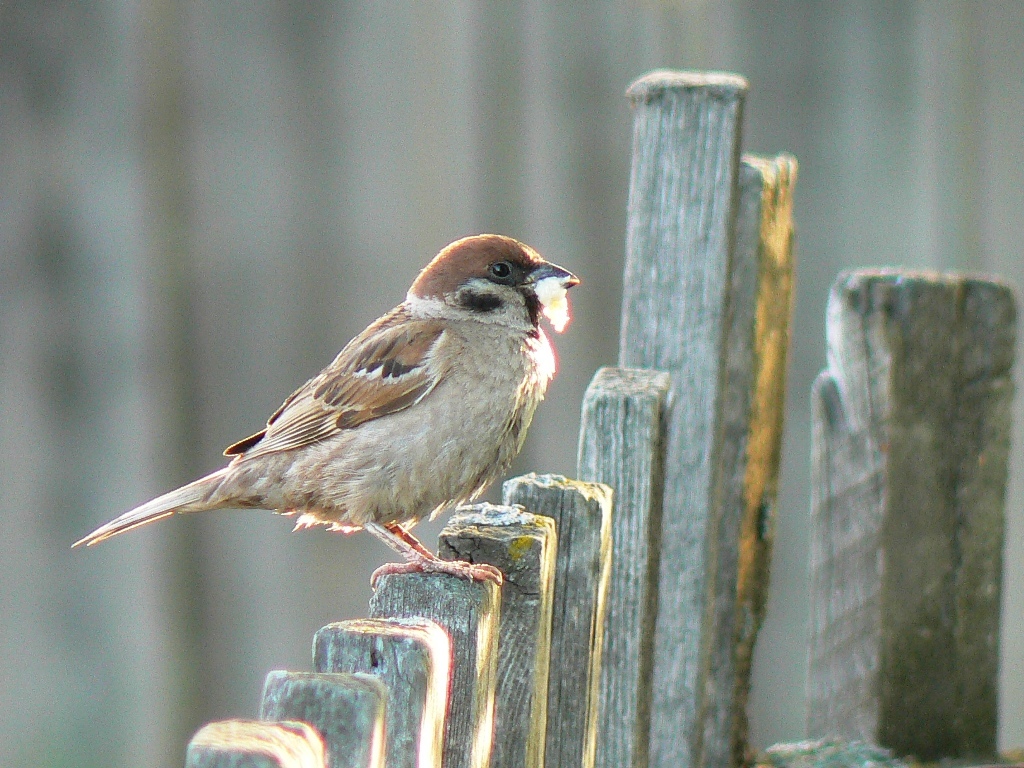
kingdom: Animalia
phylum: Chordata
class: Aves
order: Passeriformes
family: Passeridae
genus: Passer
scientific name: Passer montanus
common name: Eurasian tree sparrow
